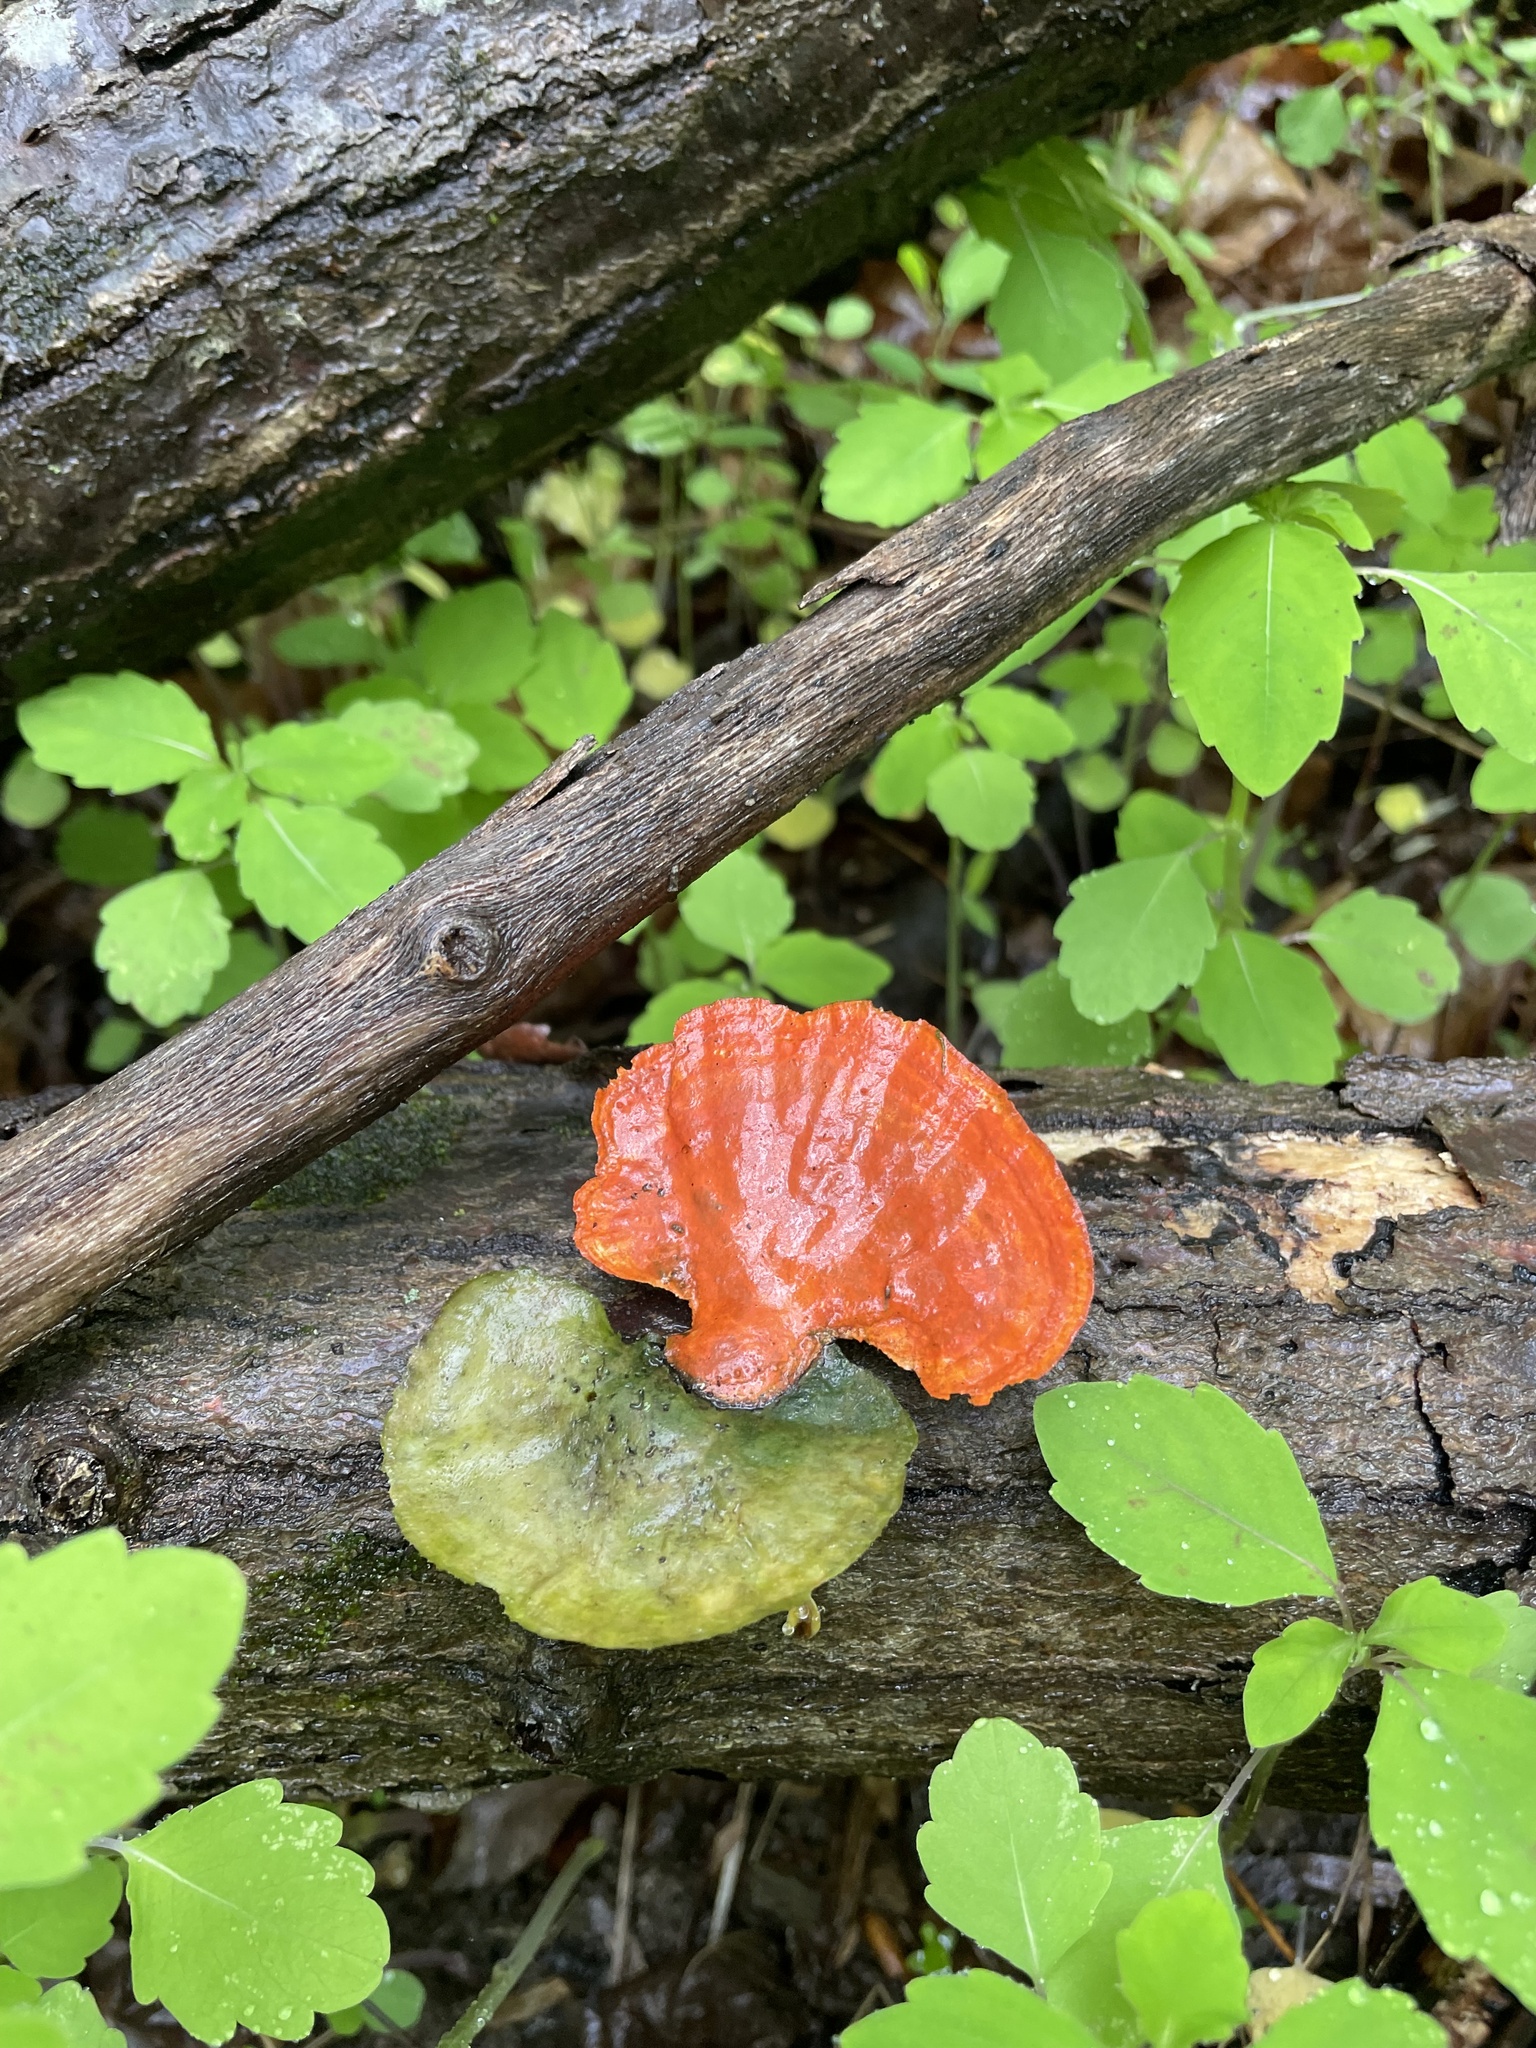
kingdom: Fungi
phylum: Basidiomycota
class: Agaricomycetes
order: Polyporales
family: Polyporaceae
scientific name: Polyporaceae
